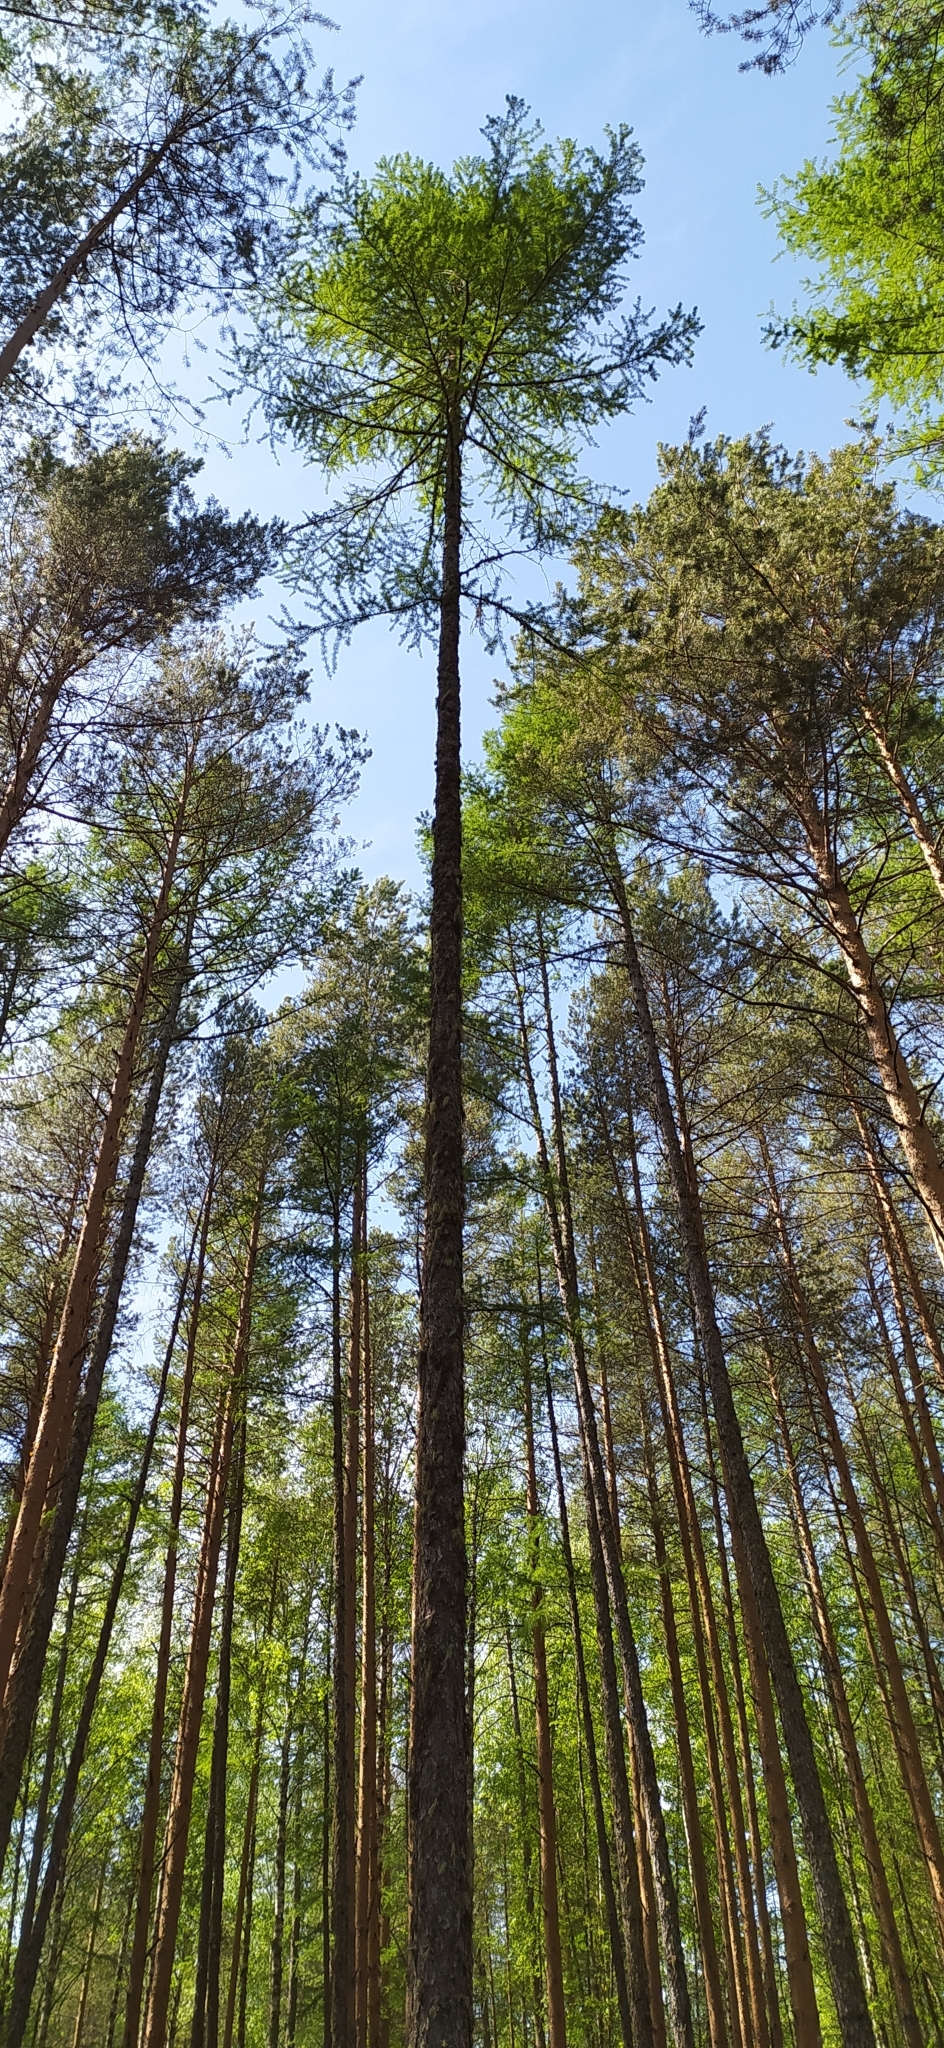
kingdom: Plantae
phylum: Tracheophyta
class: Pinopsida
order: Pinales
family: Pinaceae
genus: Larix
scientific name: Larix sibirica
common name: Siberian larch
